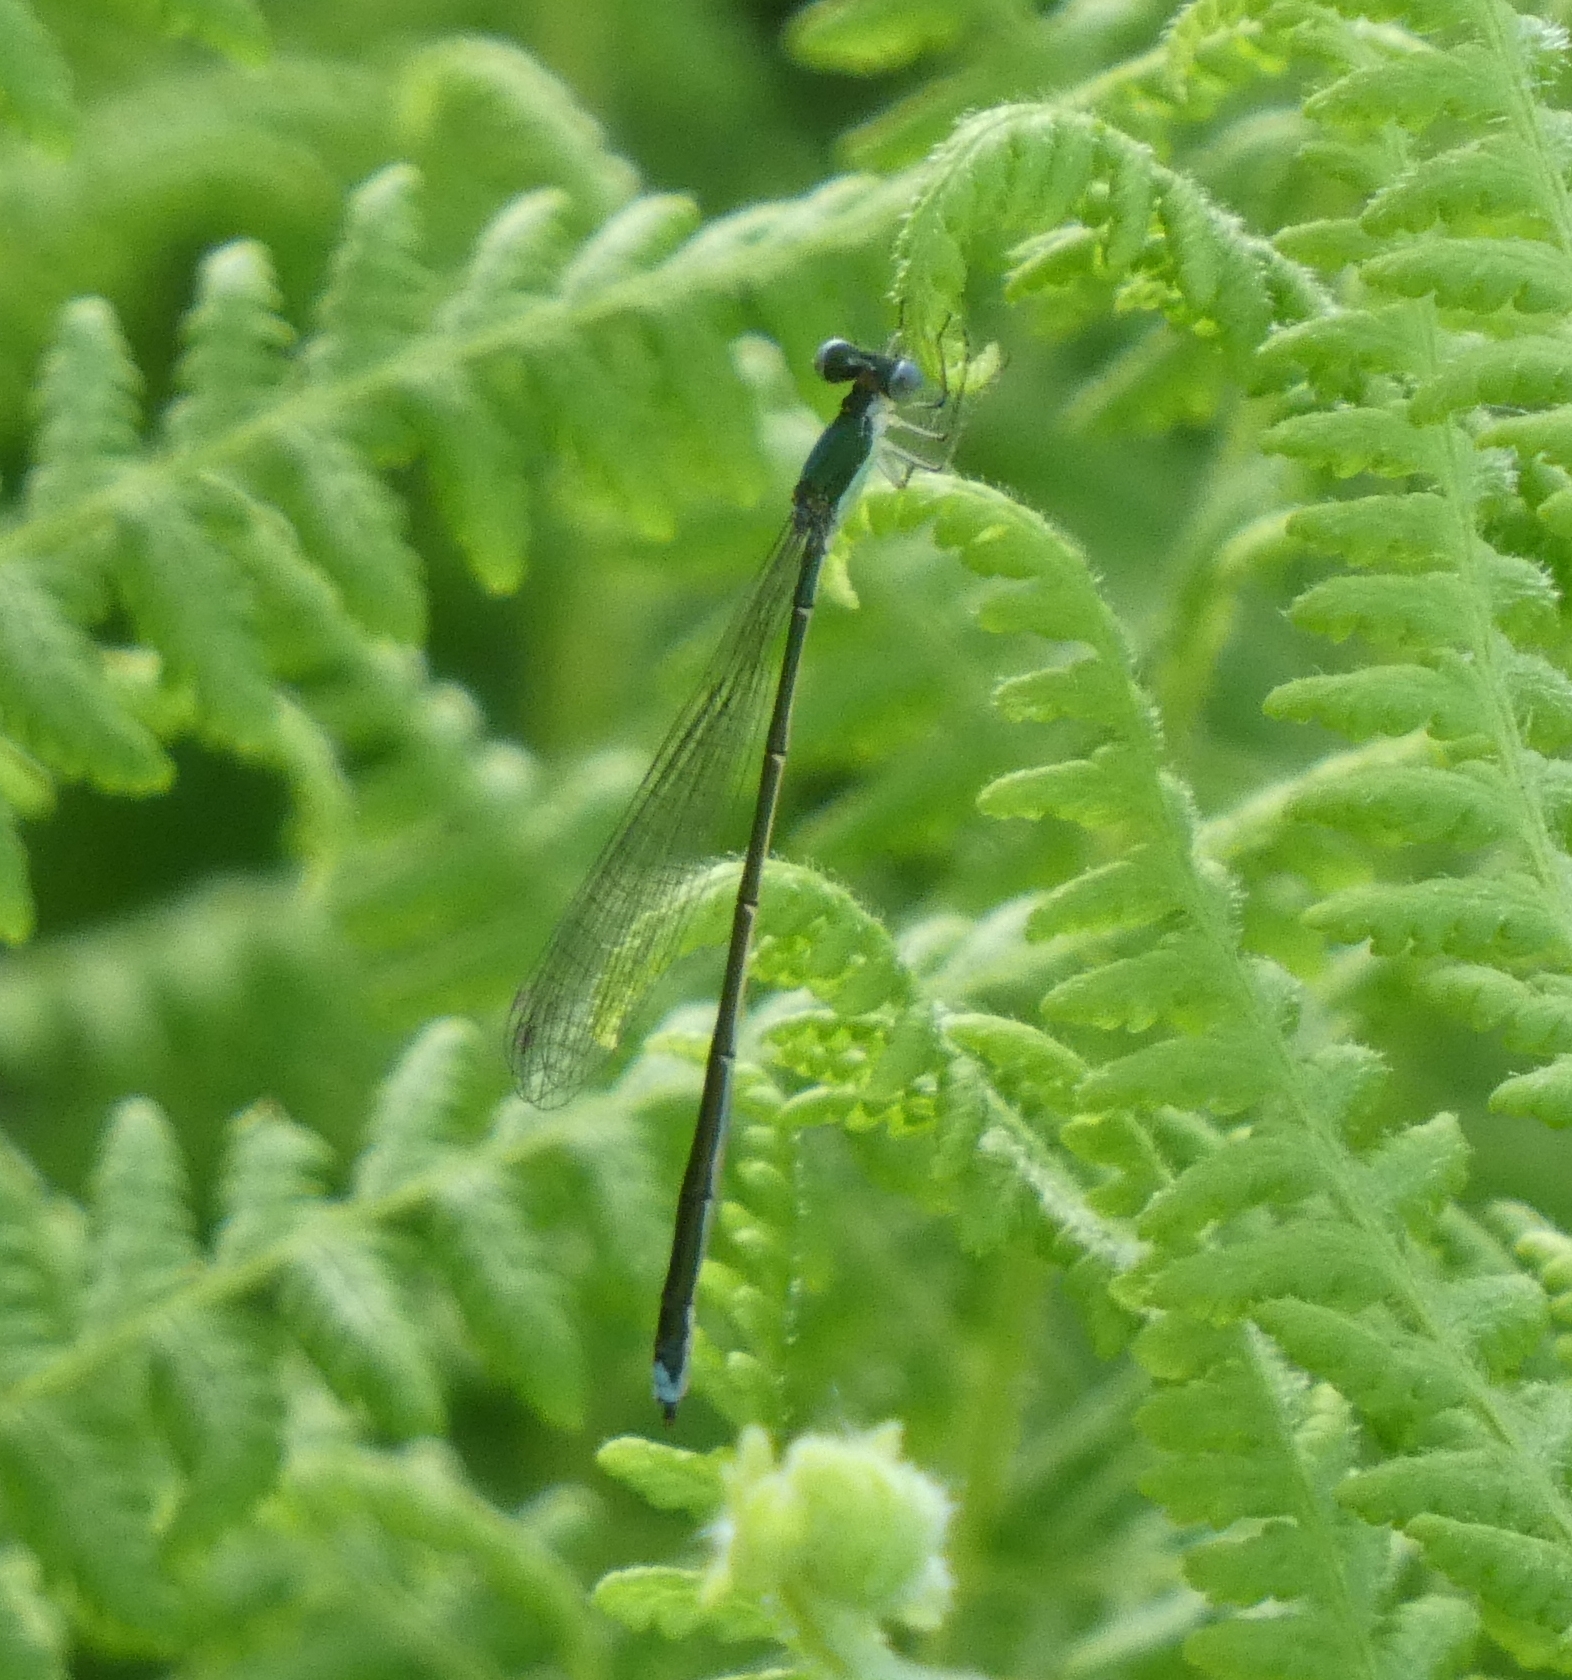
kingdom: Animalia
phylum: Arthropoda
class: Insecta
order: Odonata
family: Coenagrionidae
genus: Nehalennia
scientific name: Nehalennia irene
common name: Sedge sprite
